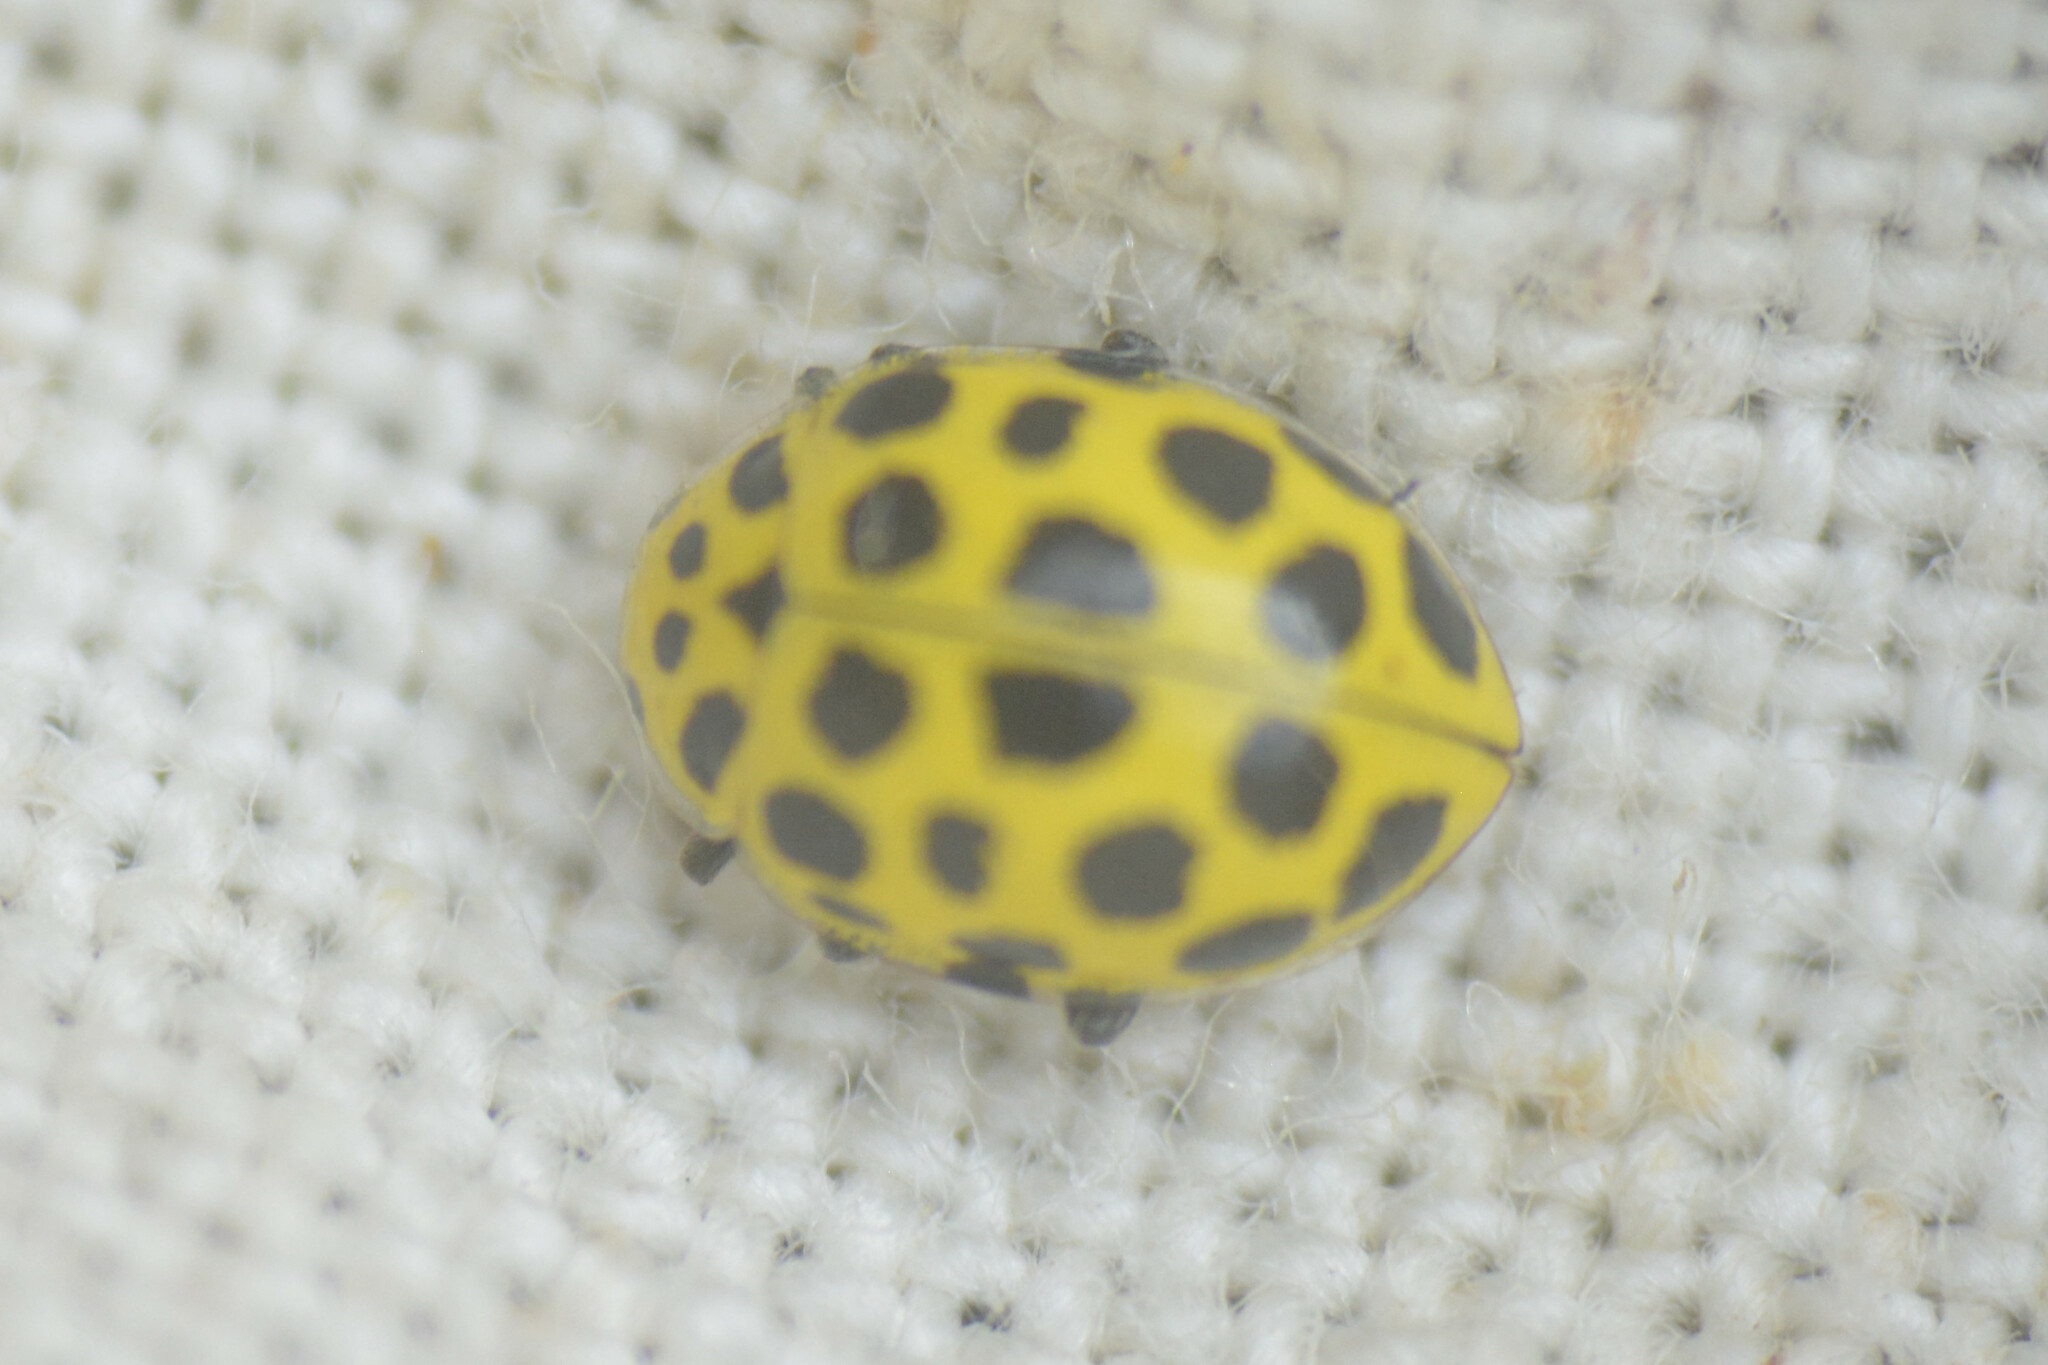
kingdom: Animalia
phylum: Arthropoda
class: Insecta
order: Coleoptera
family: Coccinellidae
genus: Psyllobora
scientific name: Psyllobora vigintiduopunctata
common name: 22-spot ladybird
